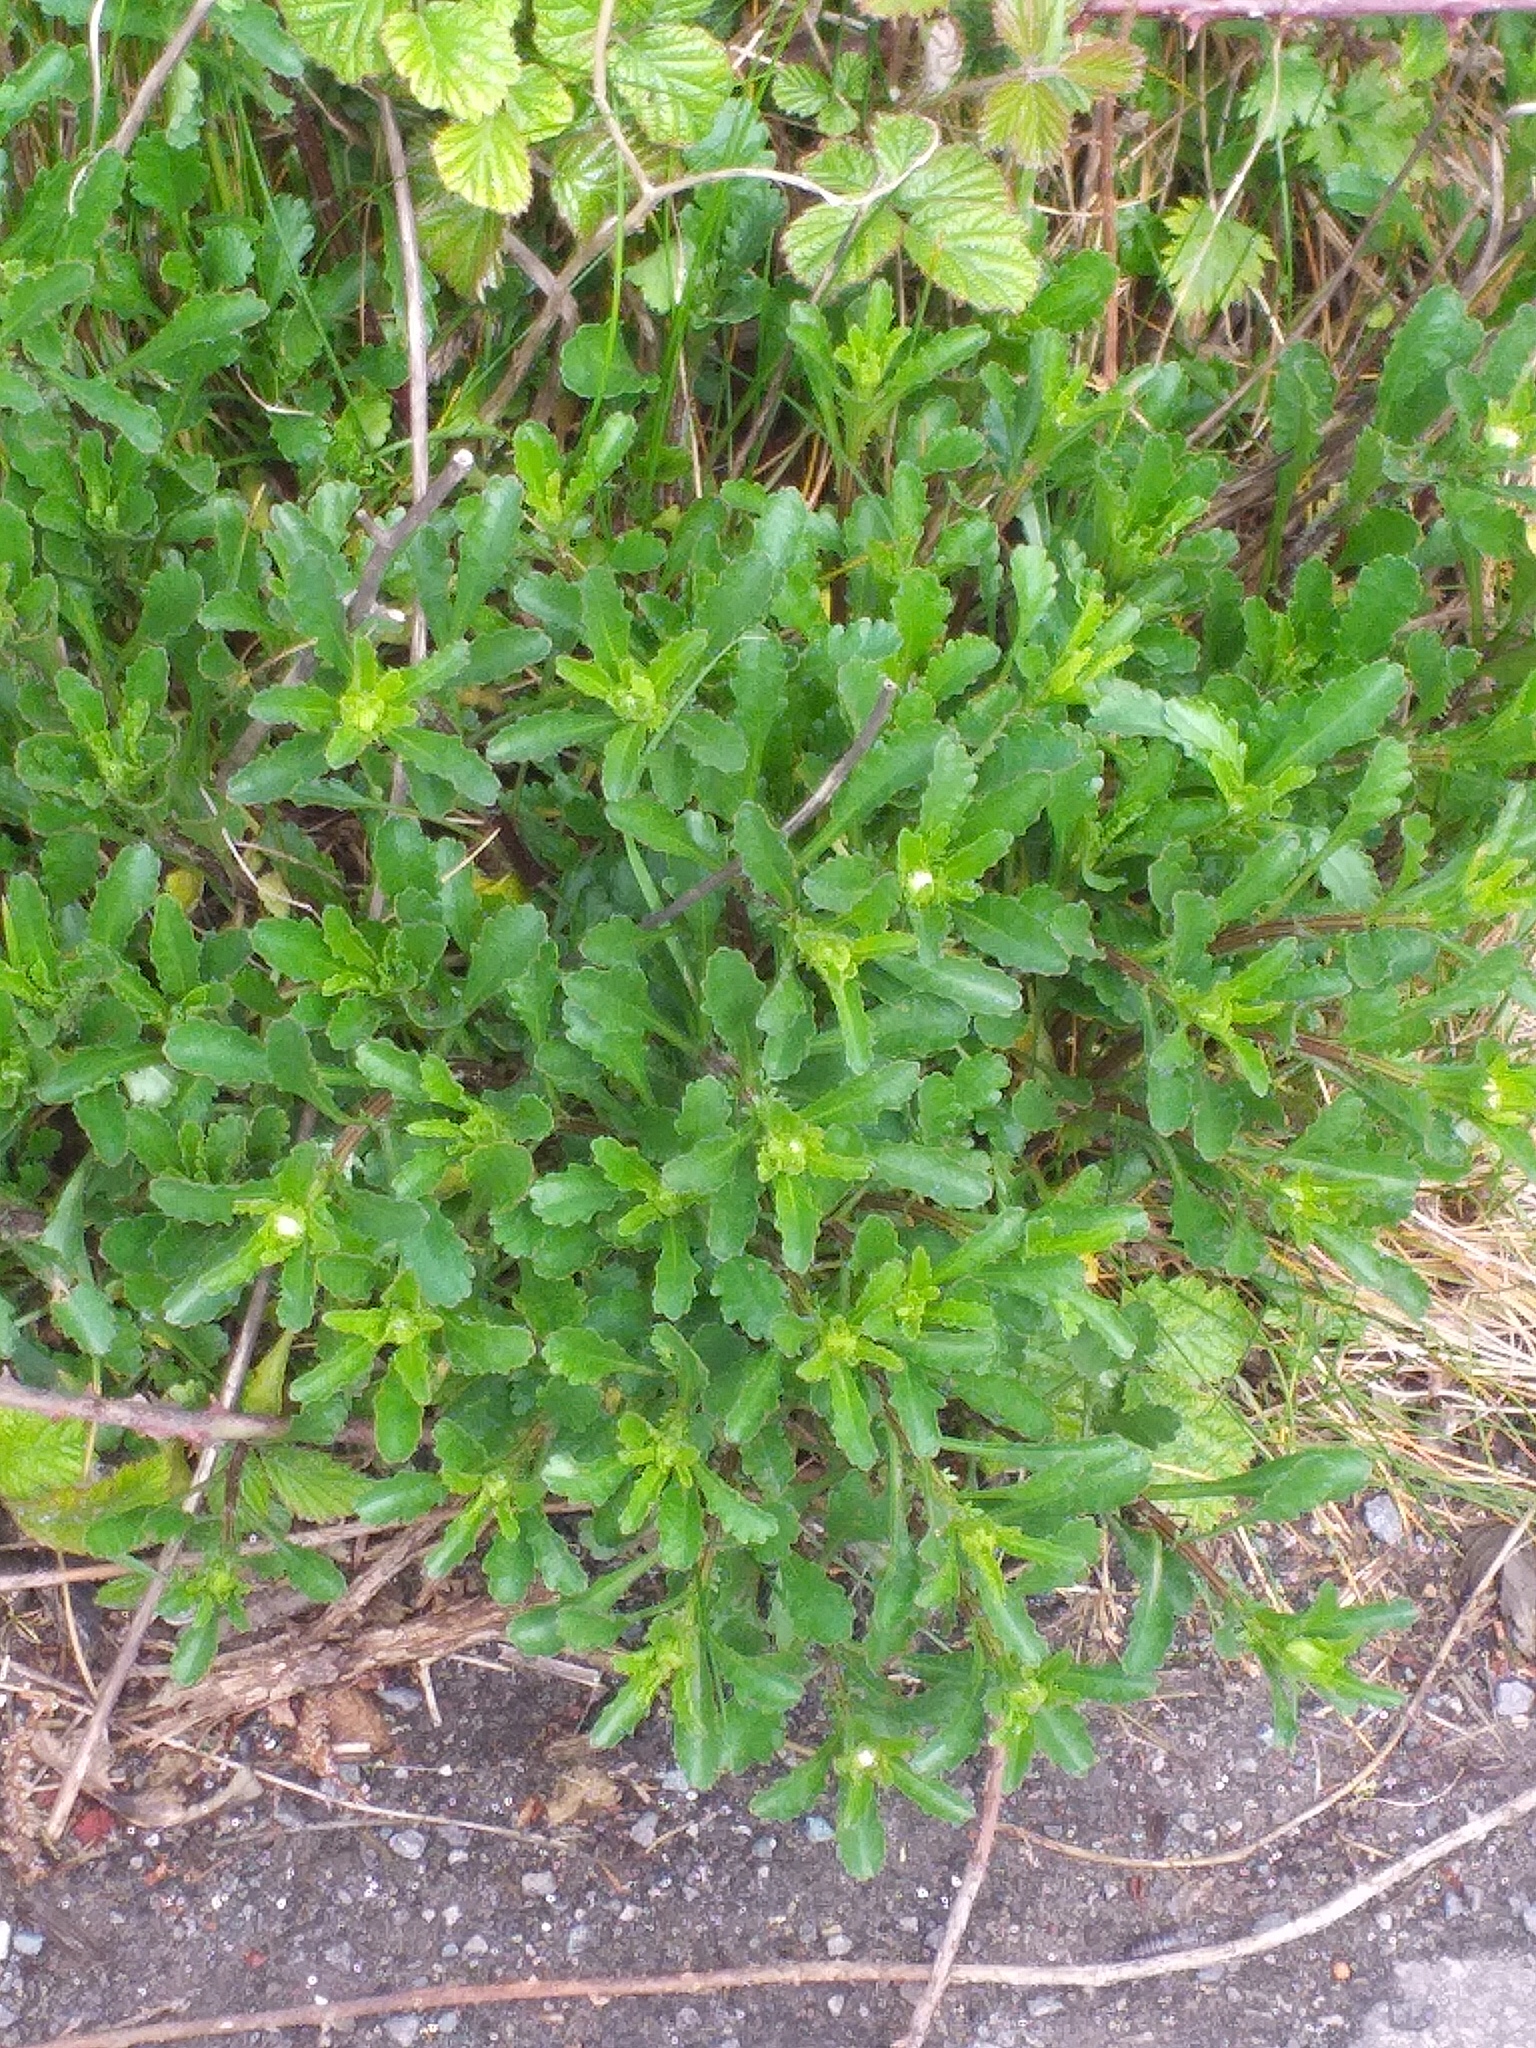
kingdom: Plantae
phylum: Tracheophyta
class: Magnoliopsida
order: Asterales
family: Asteraceae
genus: Leucanthemum
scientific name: Leucanthemum vulgare
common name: Oxeye daisy
